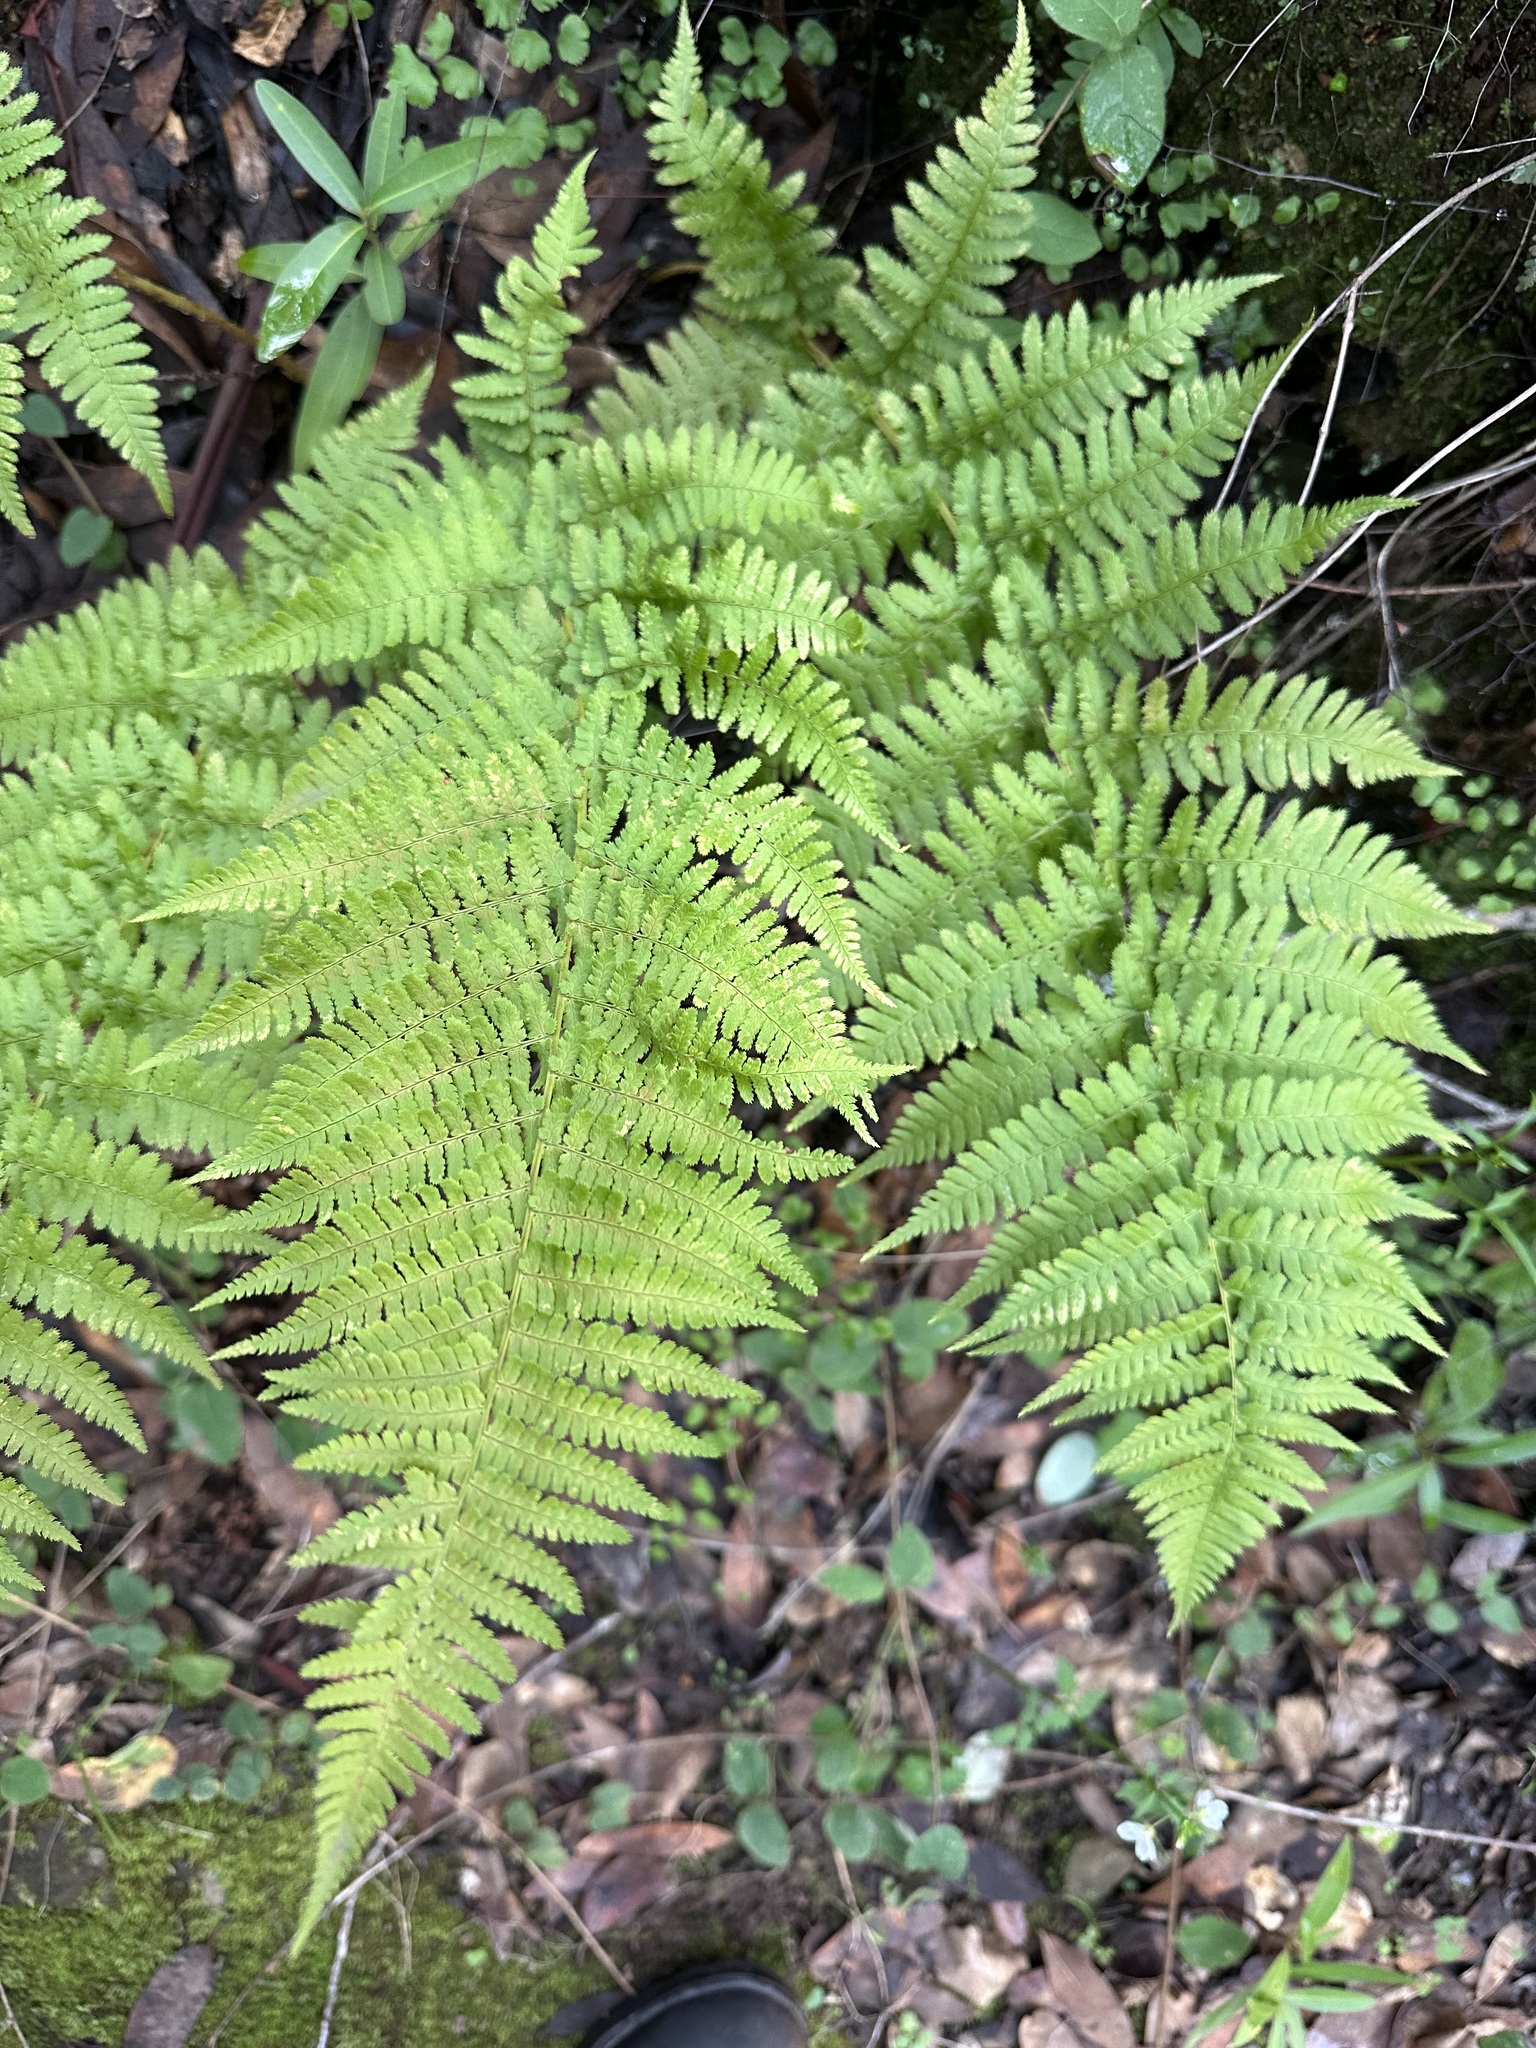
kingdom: Plantae
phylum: Tracheophyta
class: Polypodiopsida
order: Polypodiales
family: Dryopteridaceae
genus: Dryopteris
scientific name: Dryopteris arguta
